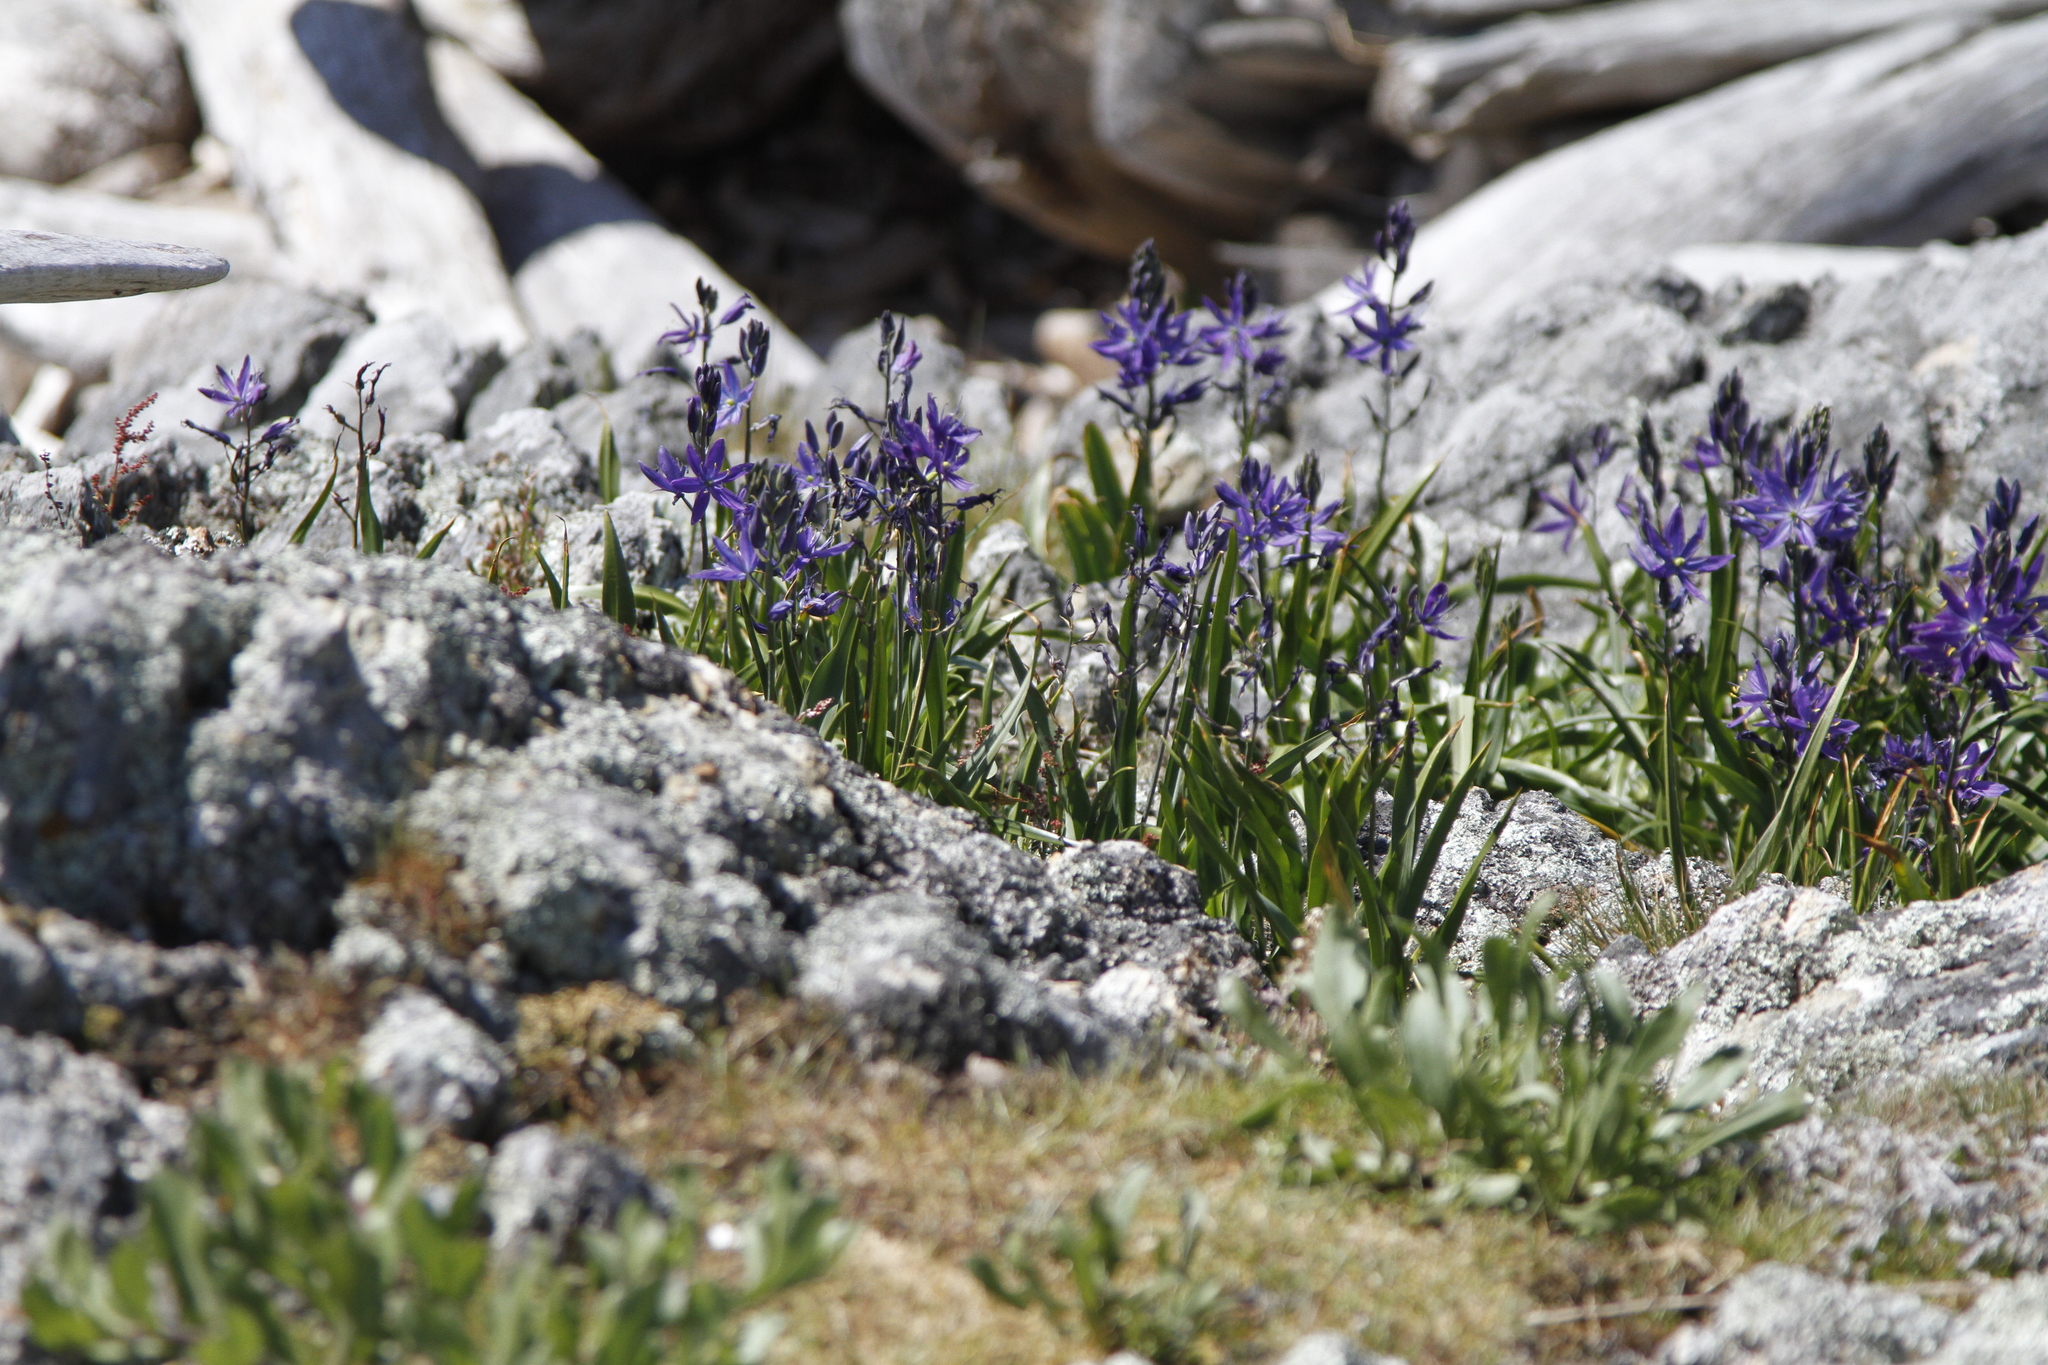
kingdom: Plantae
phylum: Tracheophyta
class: Liliopsida
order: Asparagales
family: Asparagaceae
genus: Camassia
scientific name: Camassia quamash
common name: Common camas
